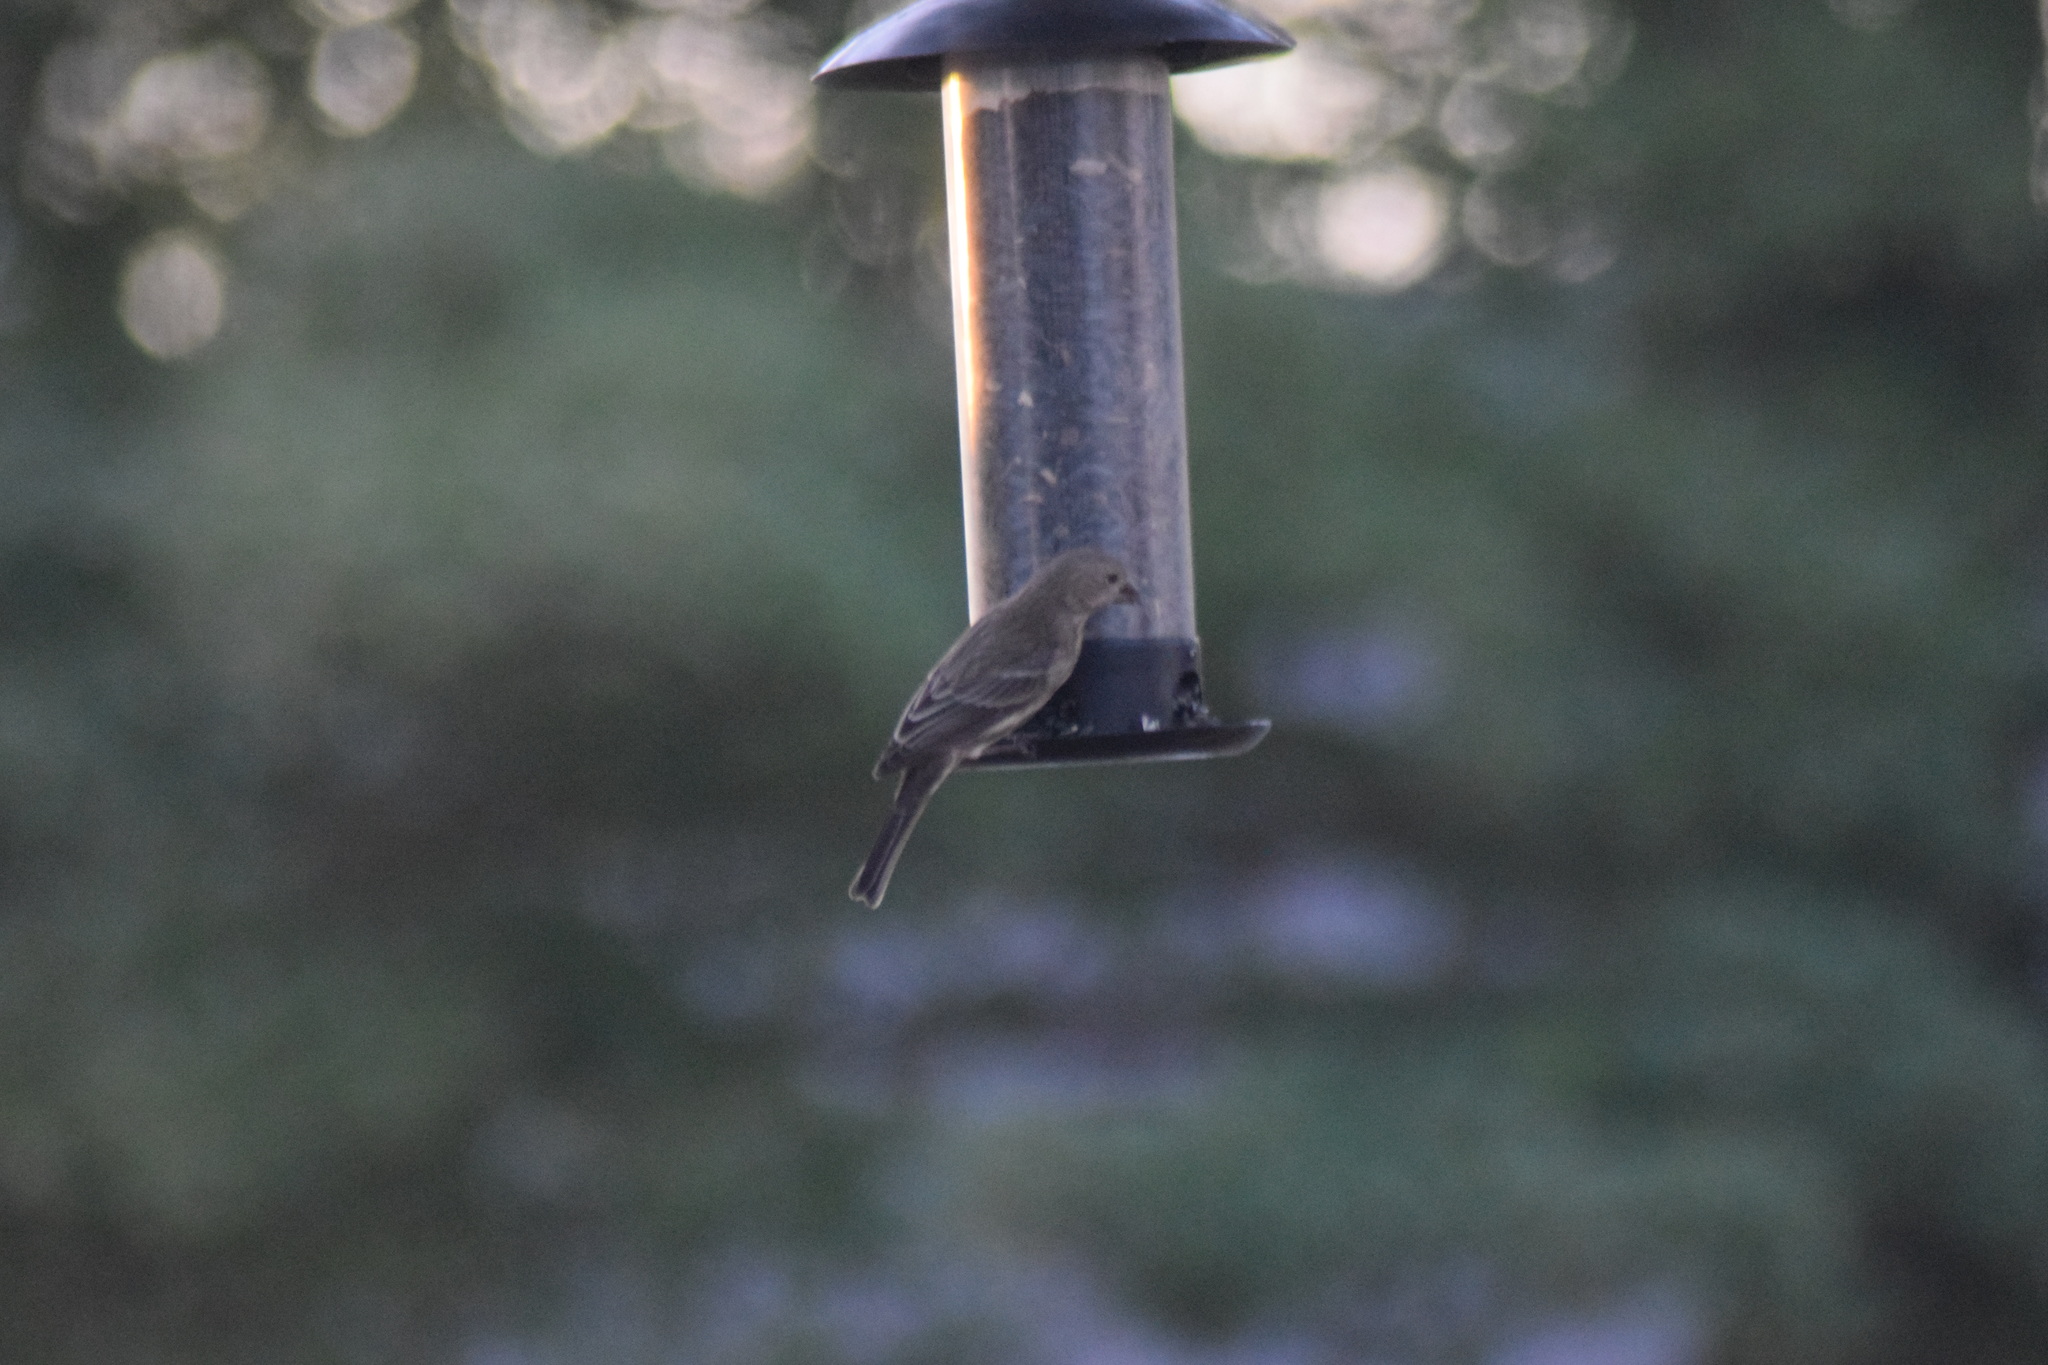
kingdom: Animalia
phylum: Chordata
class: Aves
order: Passeriformes
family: Fringillidae
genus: Haemorhous
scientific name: Haemorhous mexicanus
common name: House finch
